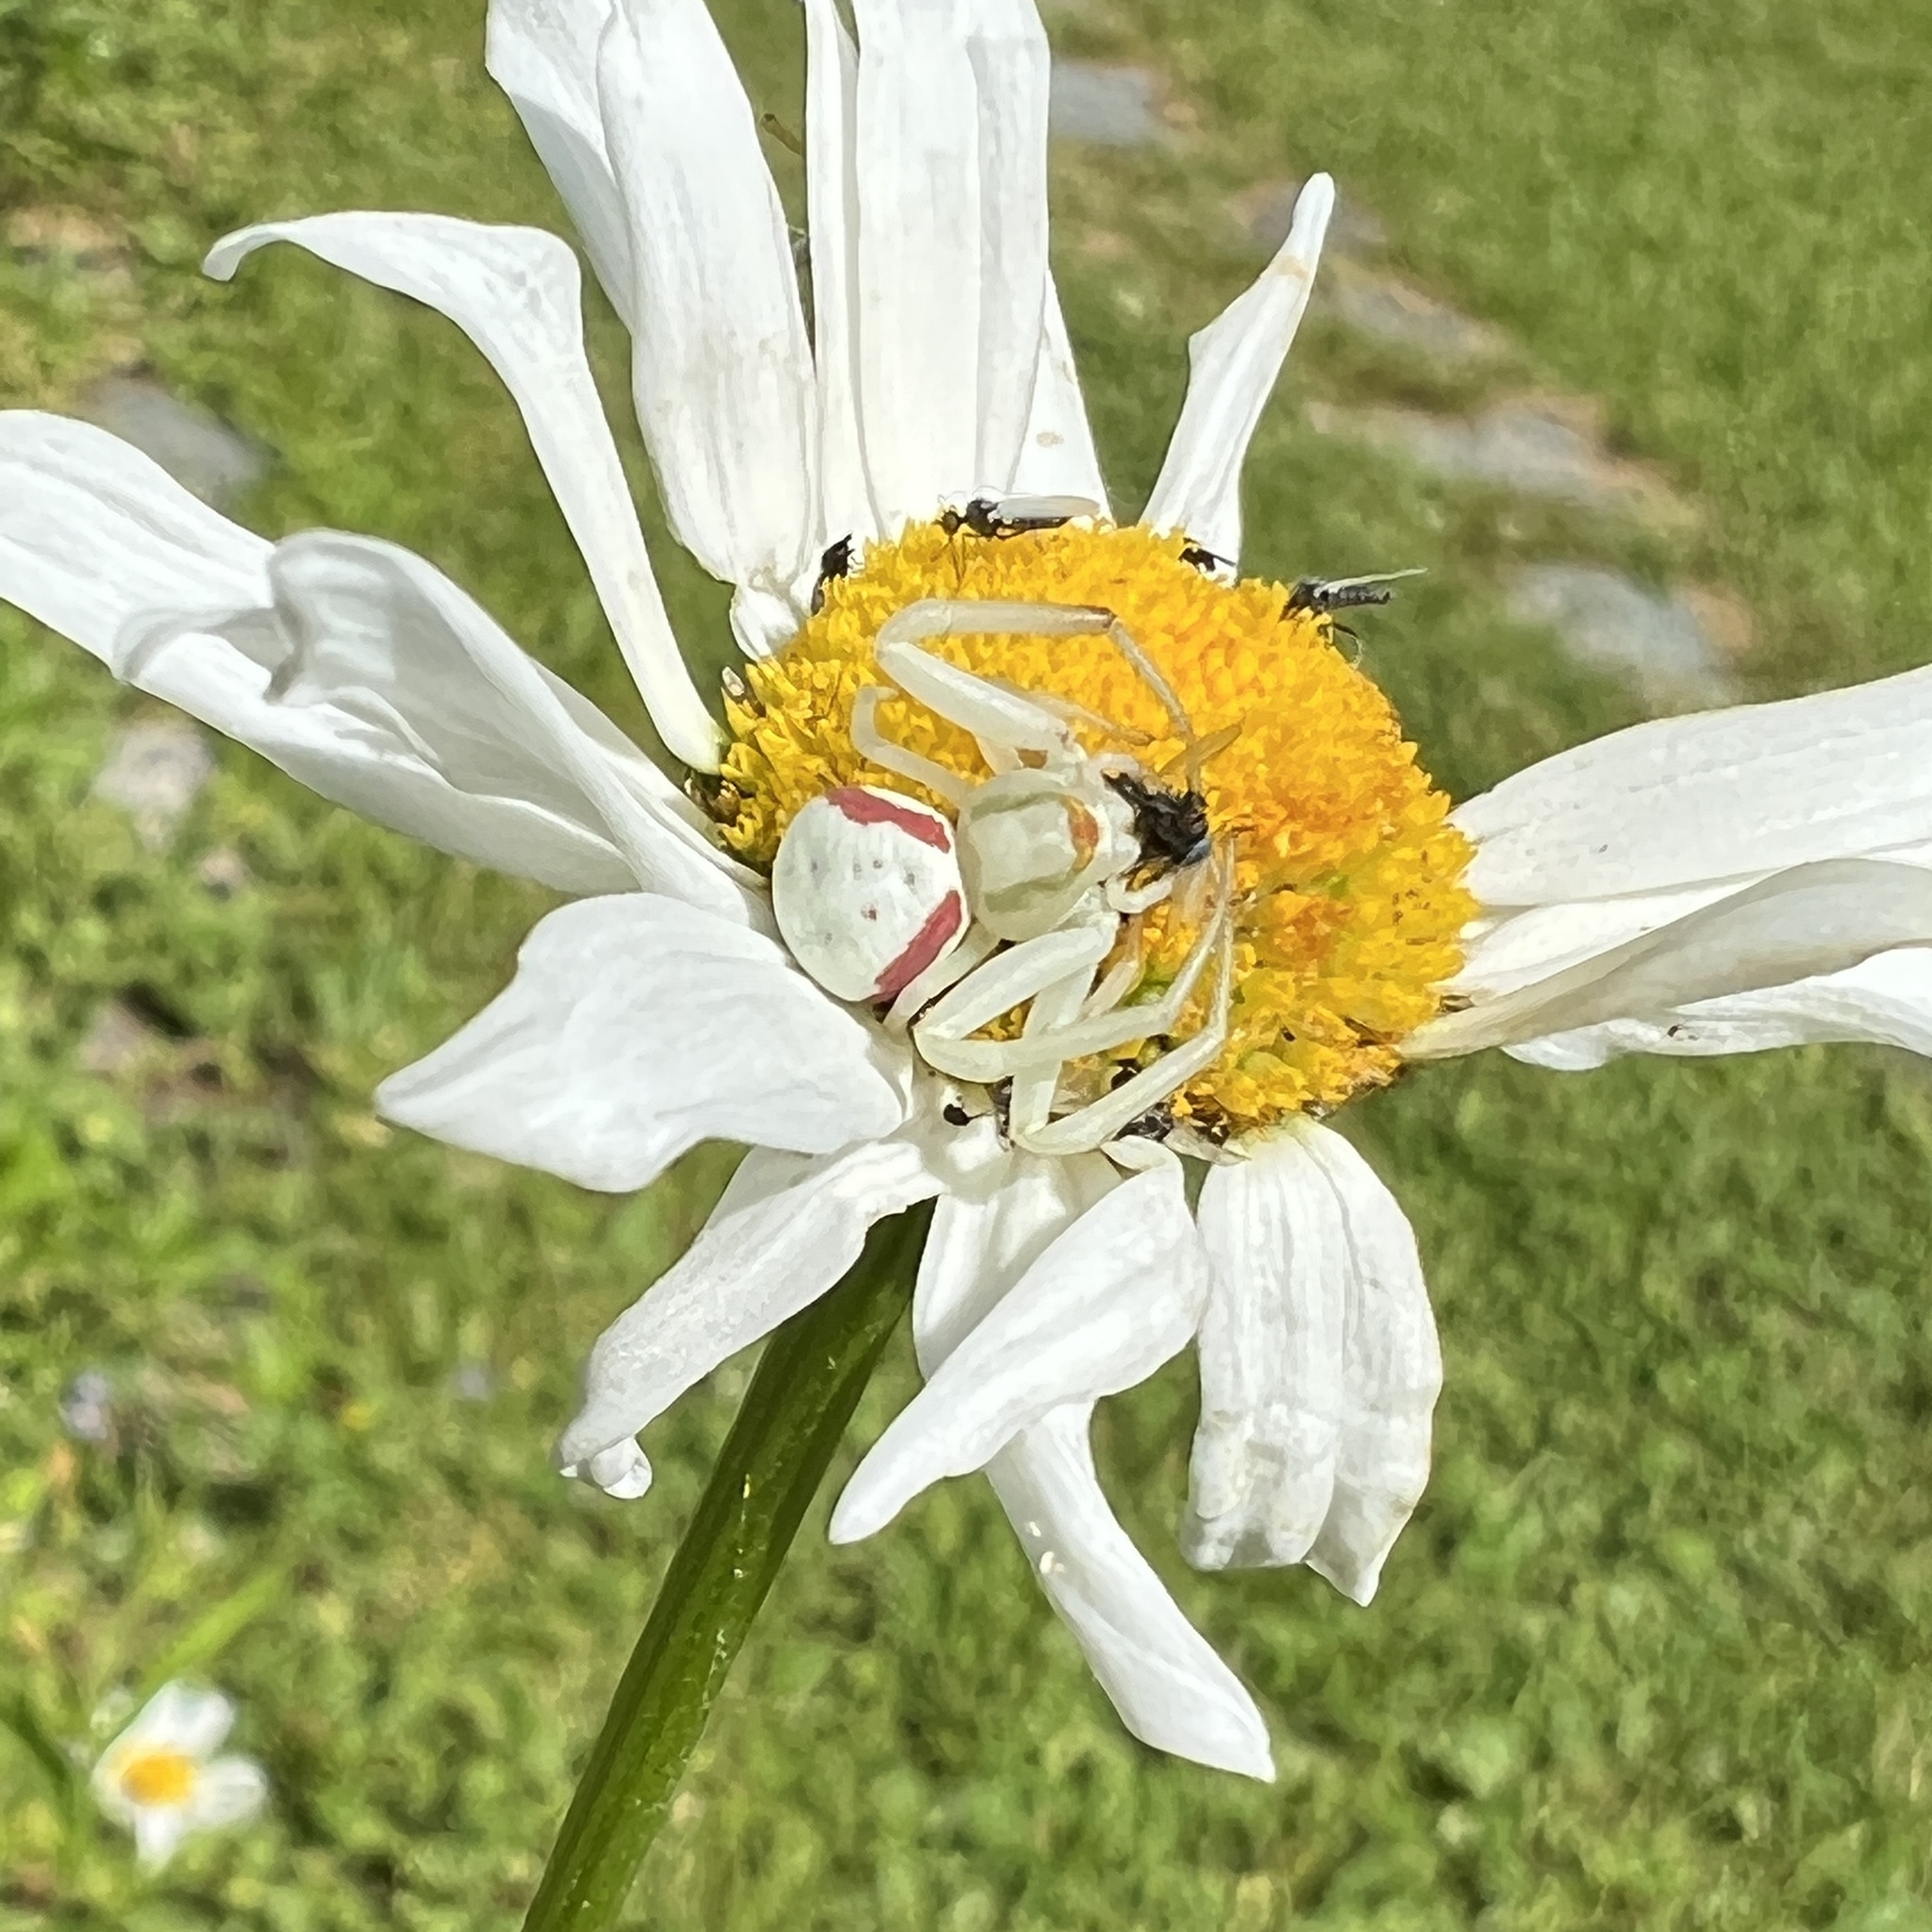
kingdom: Animalia
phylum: Arthropoda
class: Arachnida
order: Araneae
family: Thomisidae
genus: Misumena
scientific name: Misumena vatia
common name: Goldenrod crab spider
